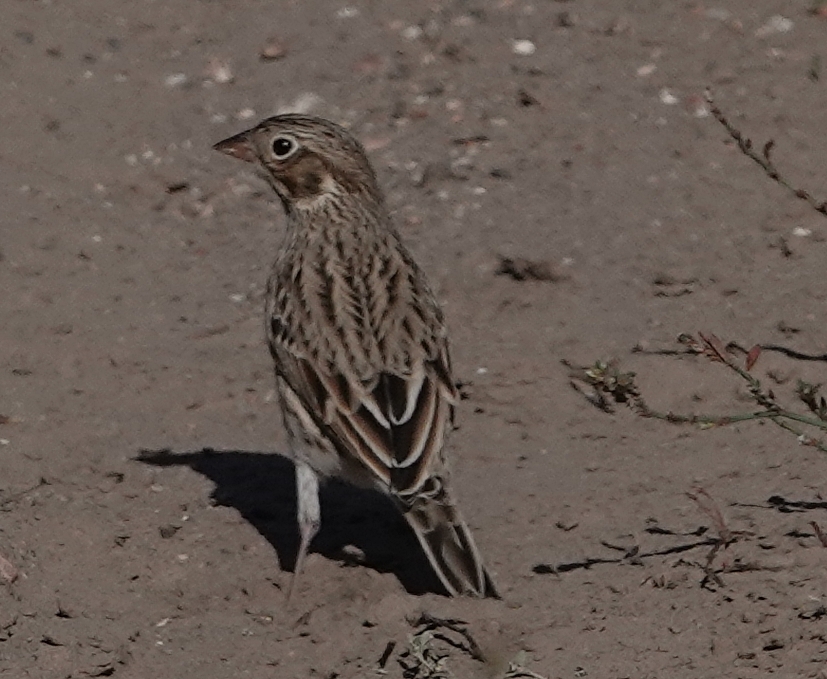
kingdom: Animalia
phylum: Chordata
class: Aves
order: Passeriformes
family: Passerellidae
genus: Pooecetes
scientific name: Pooecetes gramineus
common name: Vesper sparrow
